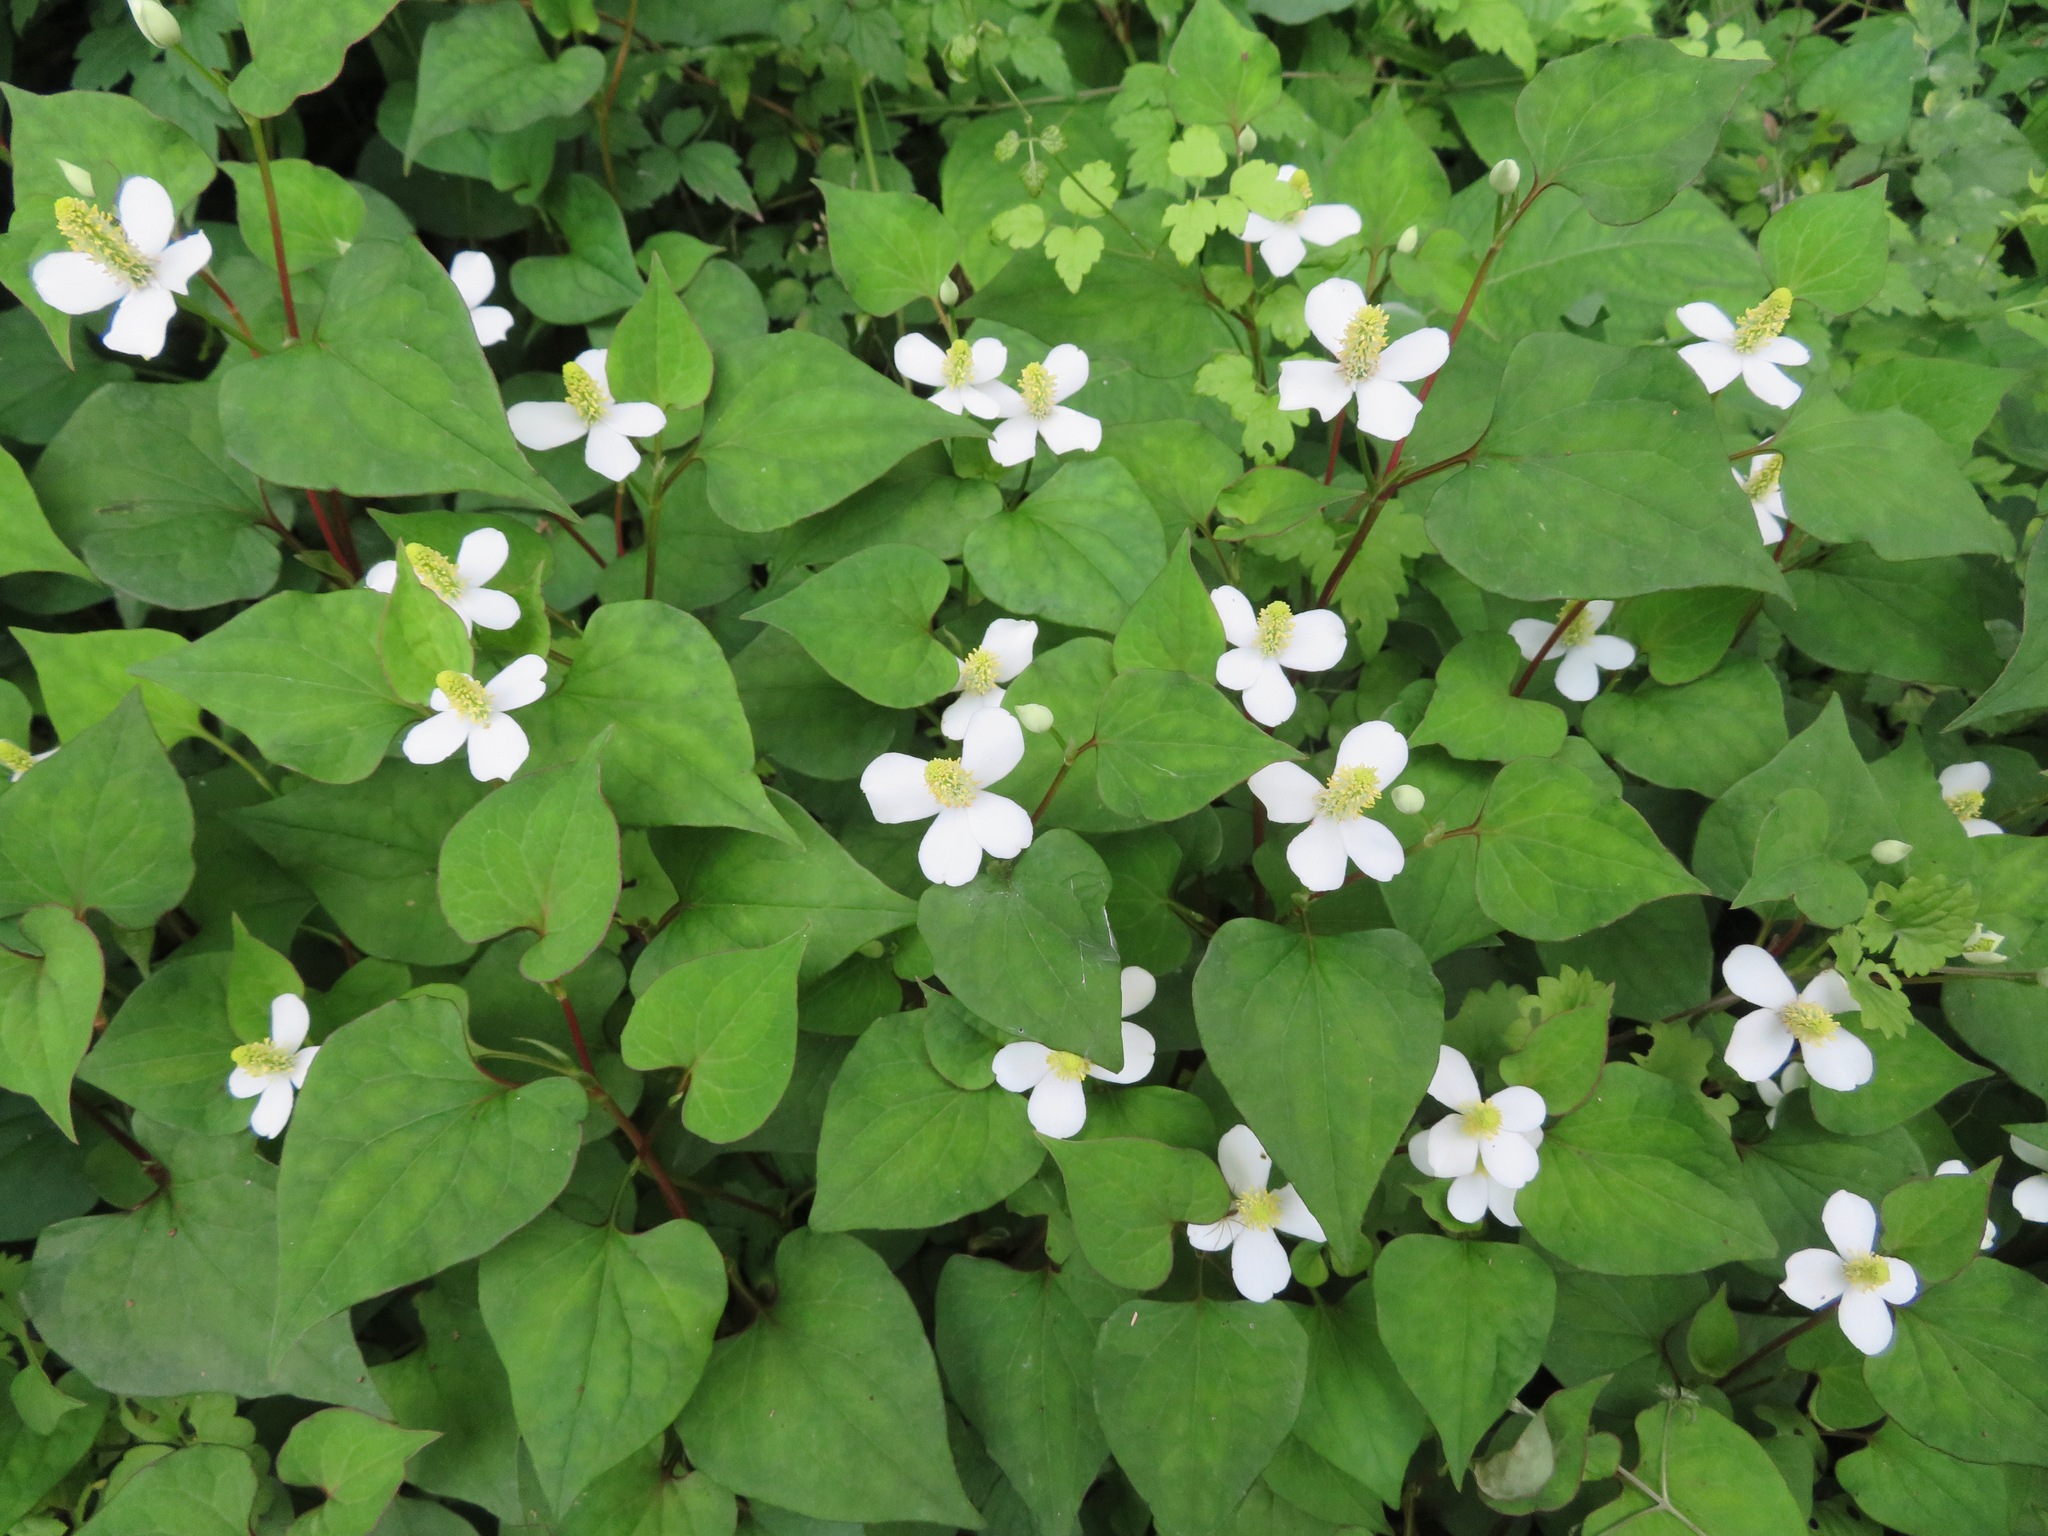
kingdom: Plantae
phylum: Tracheophyta
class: Magnoliopsida
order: Piperales
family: Saururaceae
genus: Houttuynia
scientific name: Houttuynia cordata
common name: Chameleon
